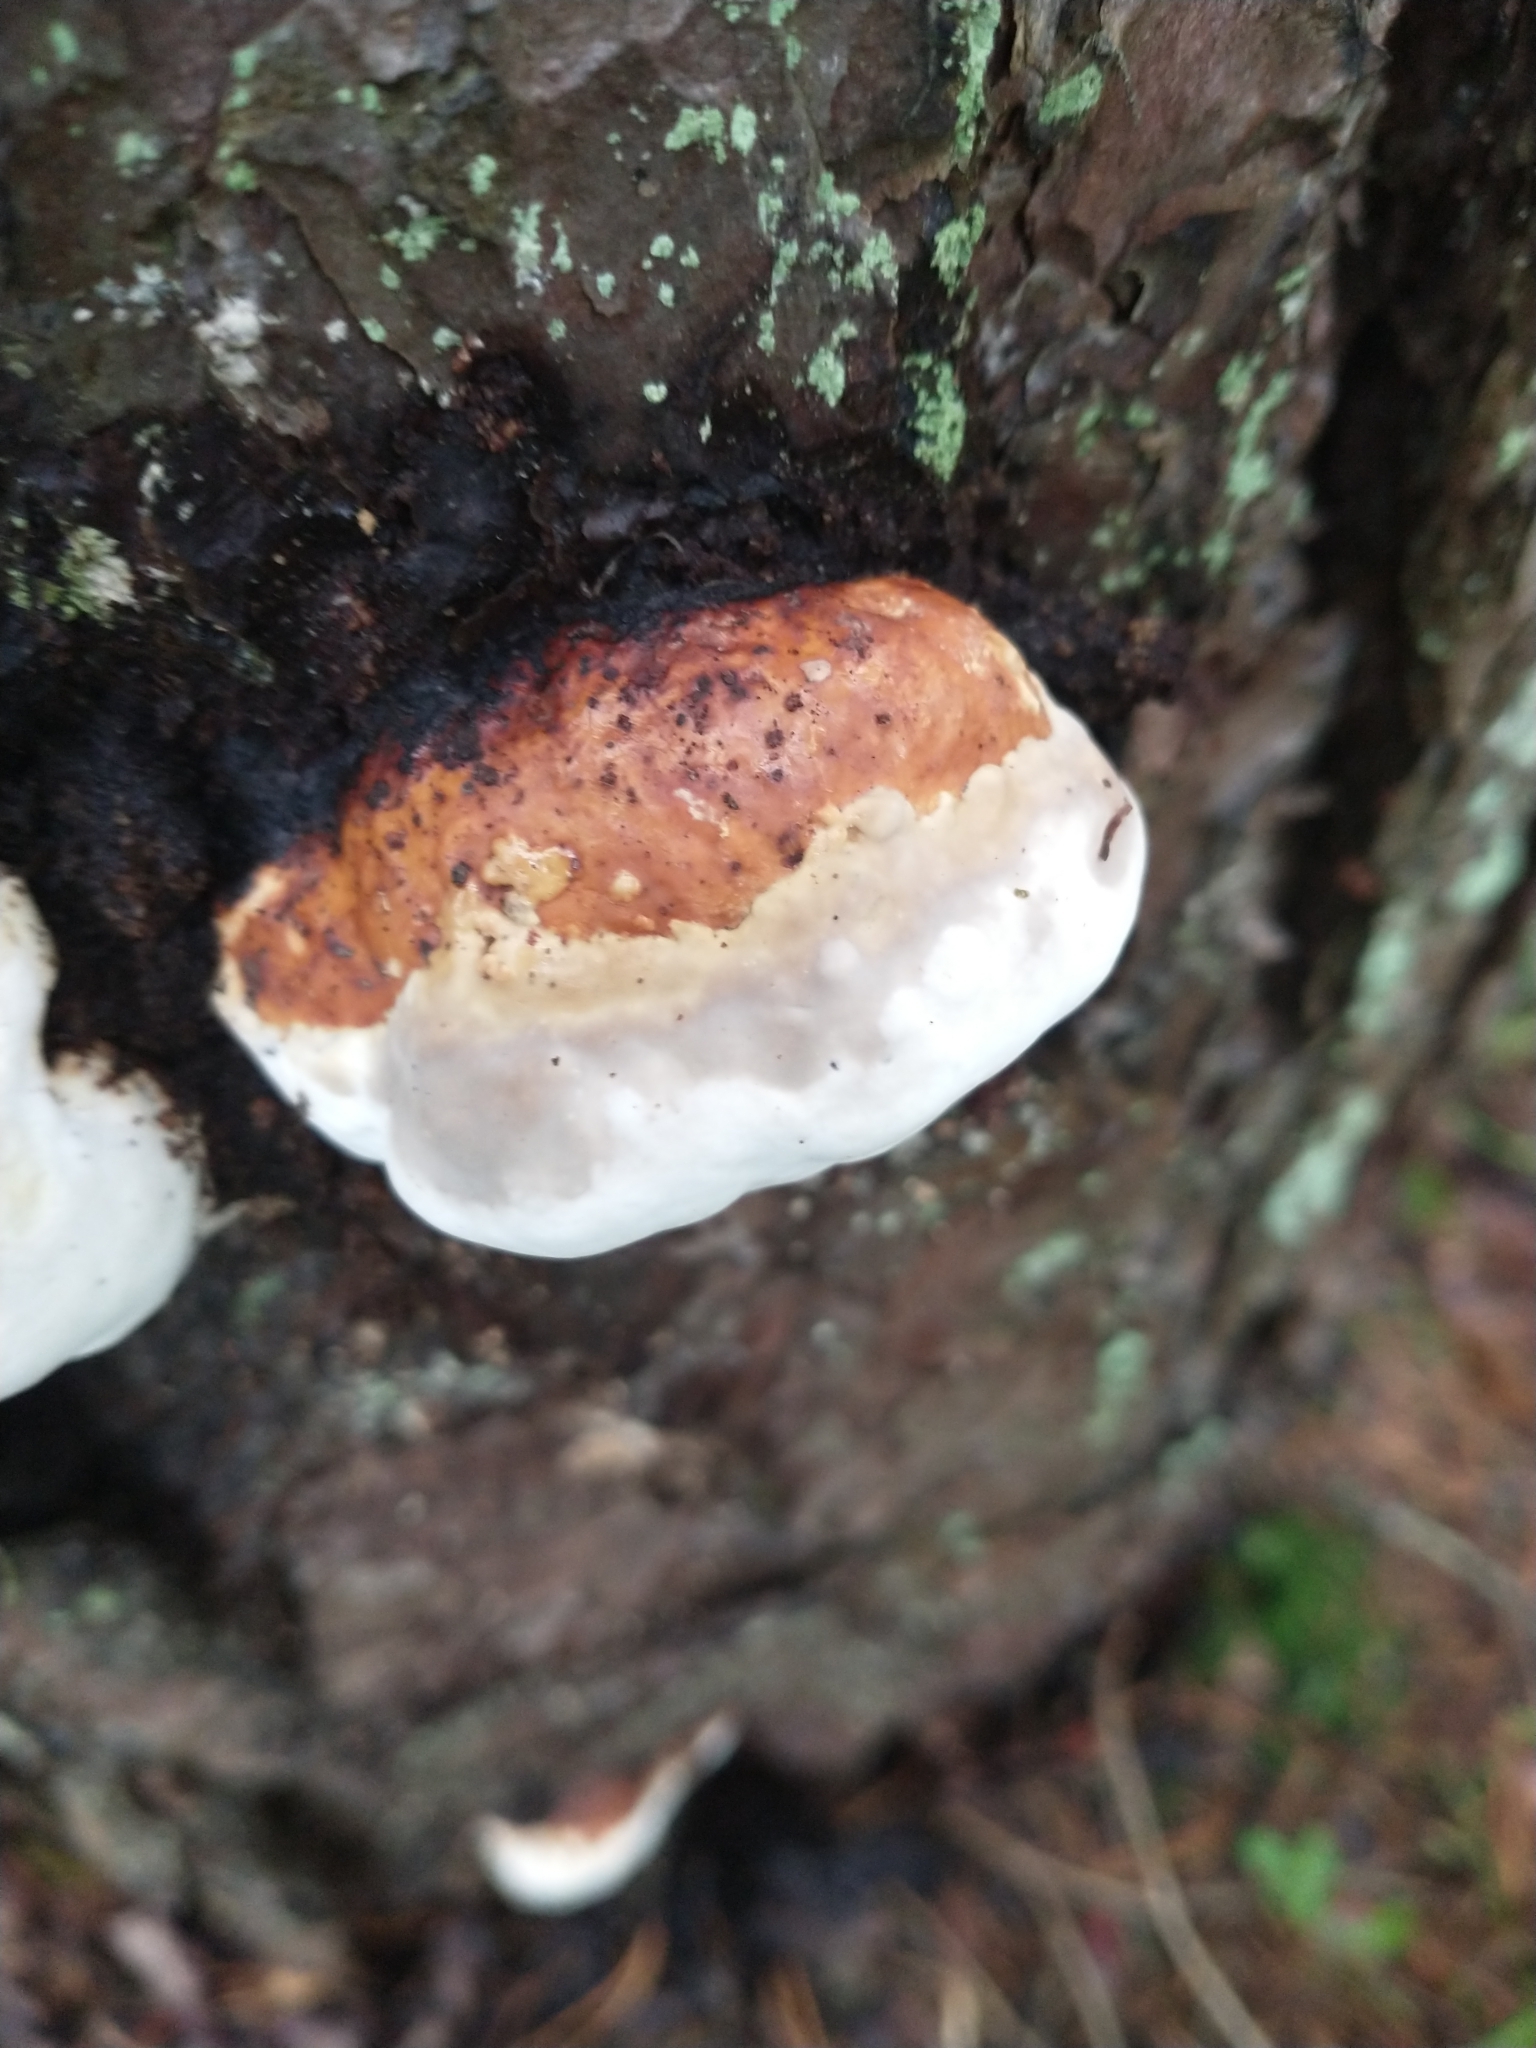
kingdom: Fungi
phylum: Basidiomycota
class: Agaricomycetes
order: Polyporales
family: Fomitopsidaceae
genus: Fomitopsis
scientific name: Fomitopsis pinicola
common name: Red-belted bracket
